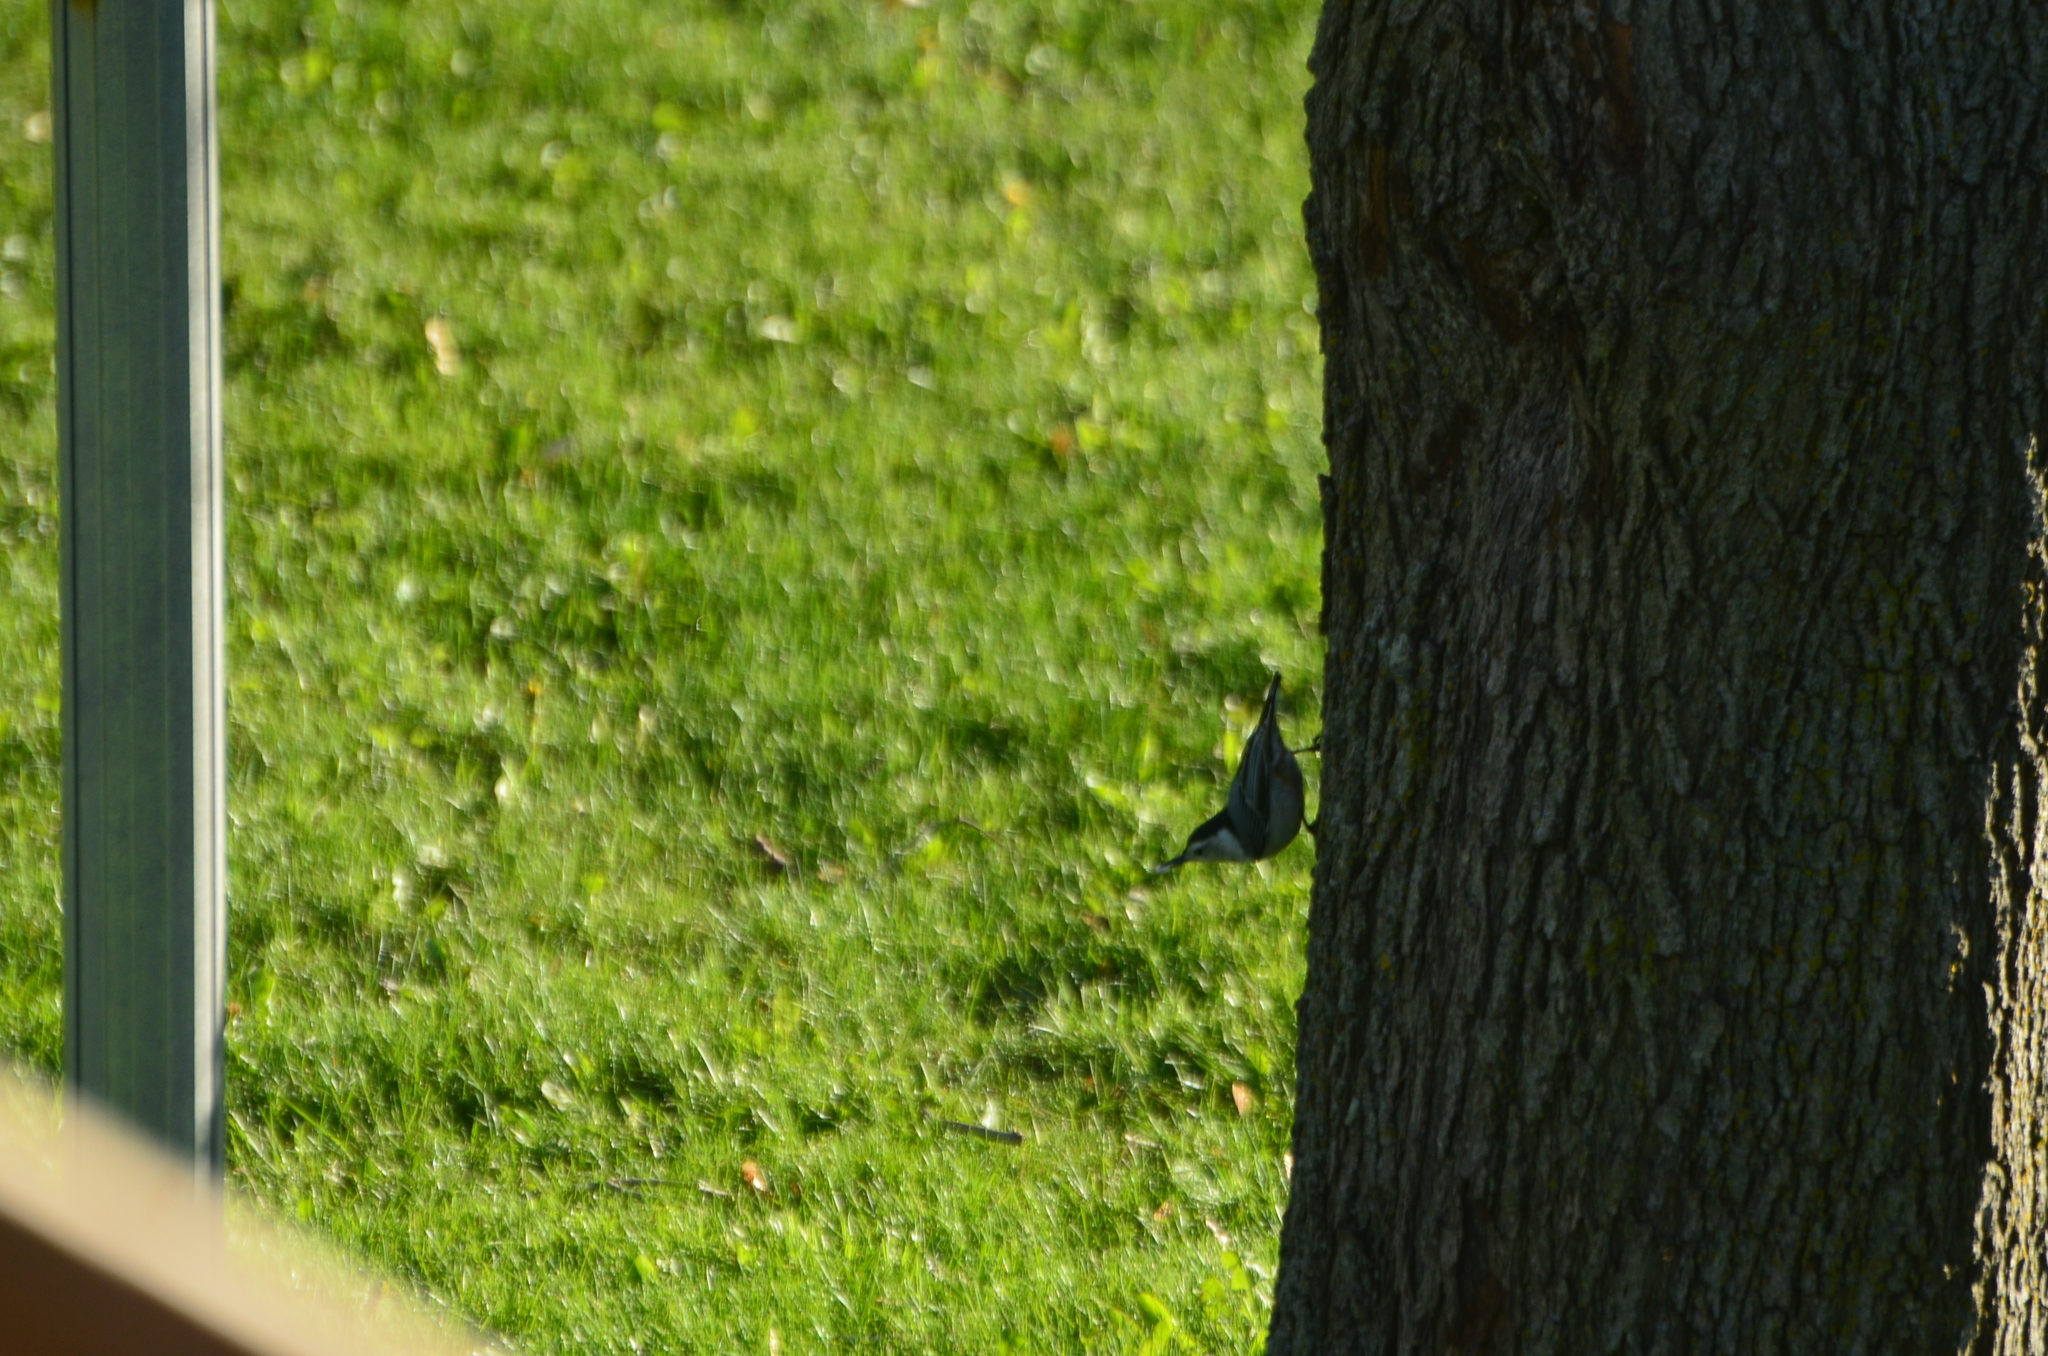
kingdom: Animalia
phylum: Chordata
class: Aves
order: Passeriformes
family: Sittidae
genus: Sitta
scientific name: Sitta carolinensis
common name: White-breasted nuthatch
